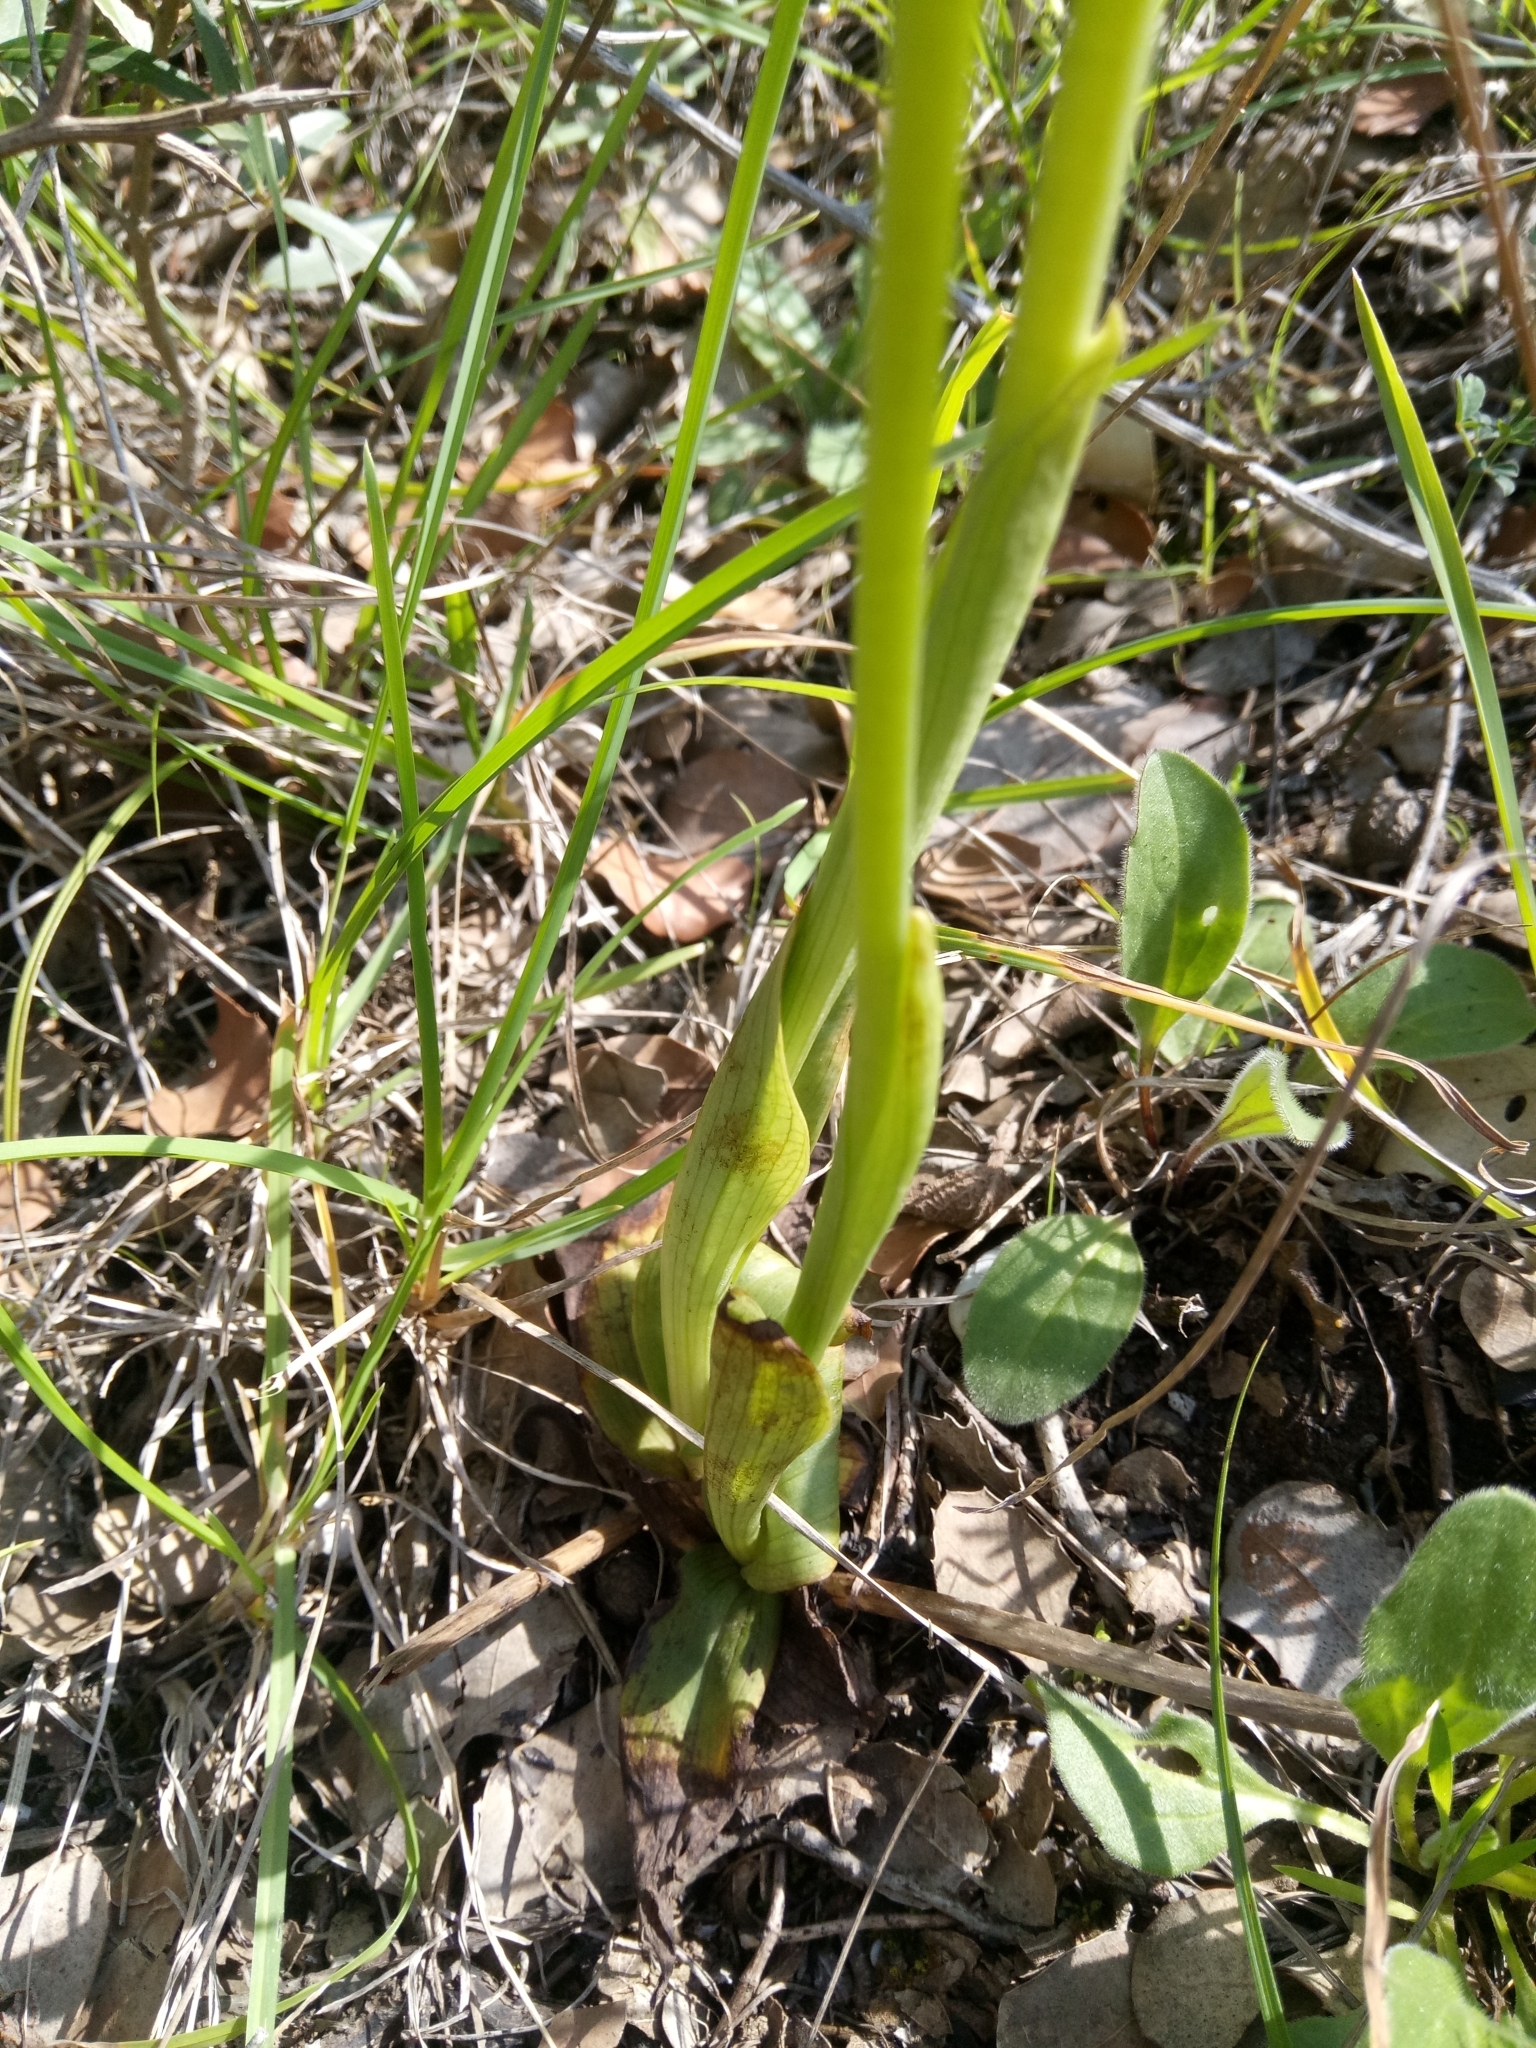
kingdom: Plantae
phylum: Tracheophyta
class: Liliopsida
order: Asparagales
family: Orchidaceae
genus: Ophrys
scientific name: Ophrys fusca
